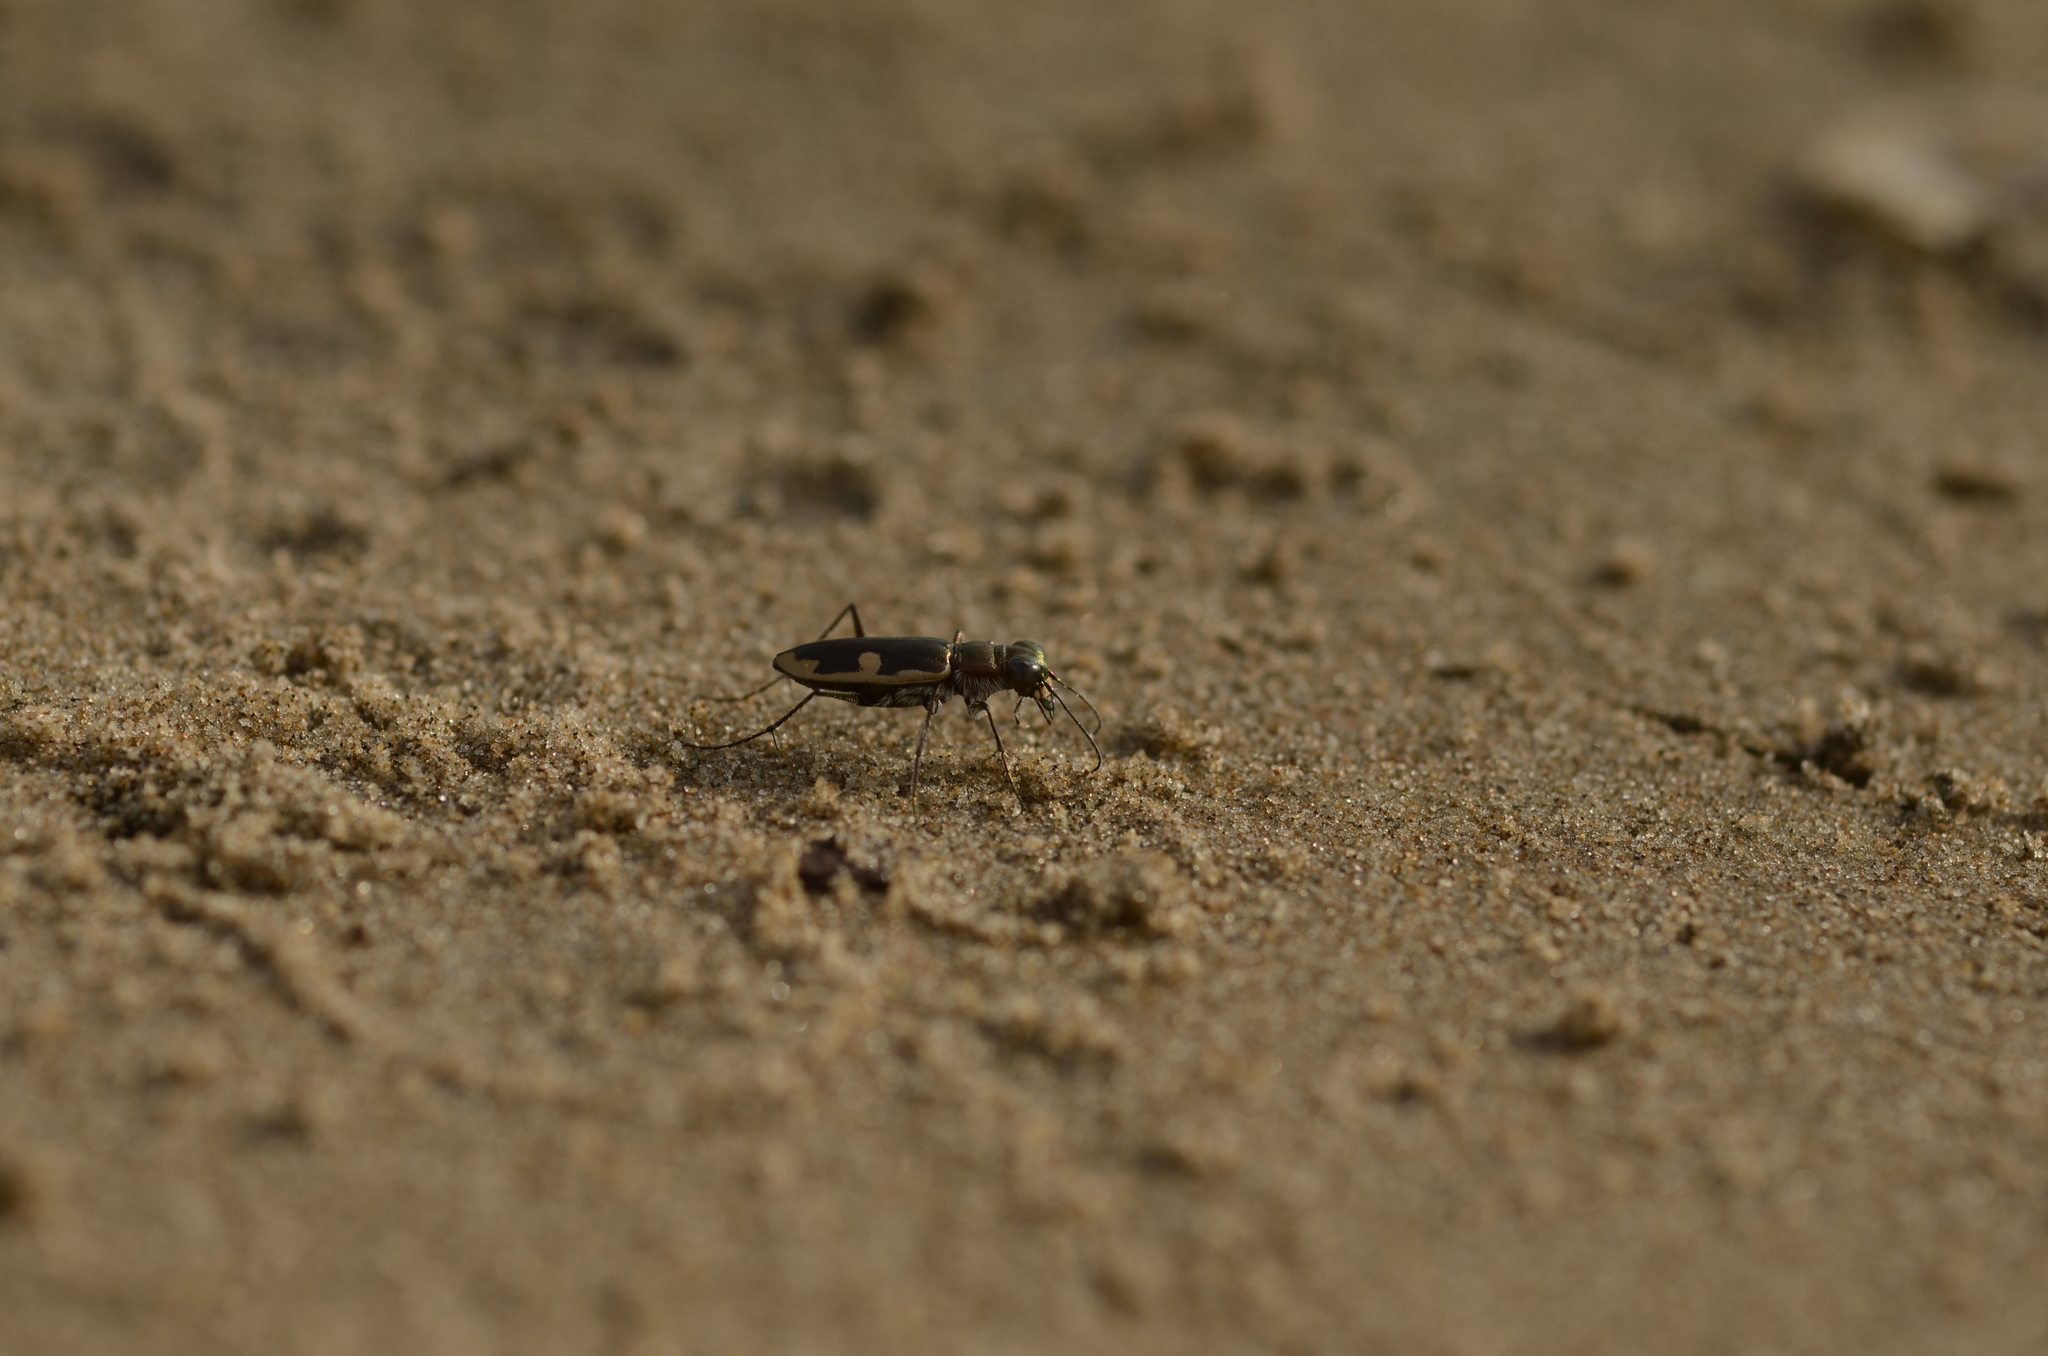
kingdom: Animalia
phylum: Arthropoda
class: Insecta
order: Coleoptera
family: Carabidae
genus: Hypaetha
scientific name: Hypaetha biramosa
